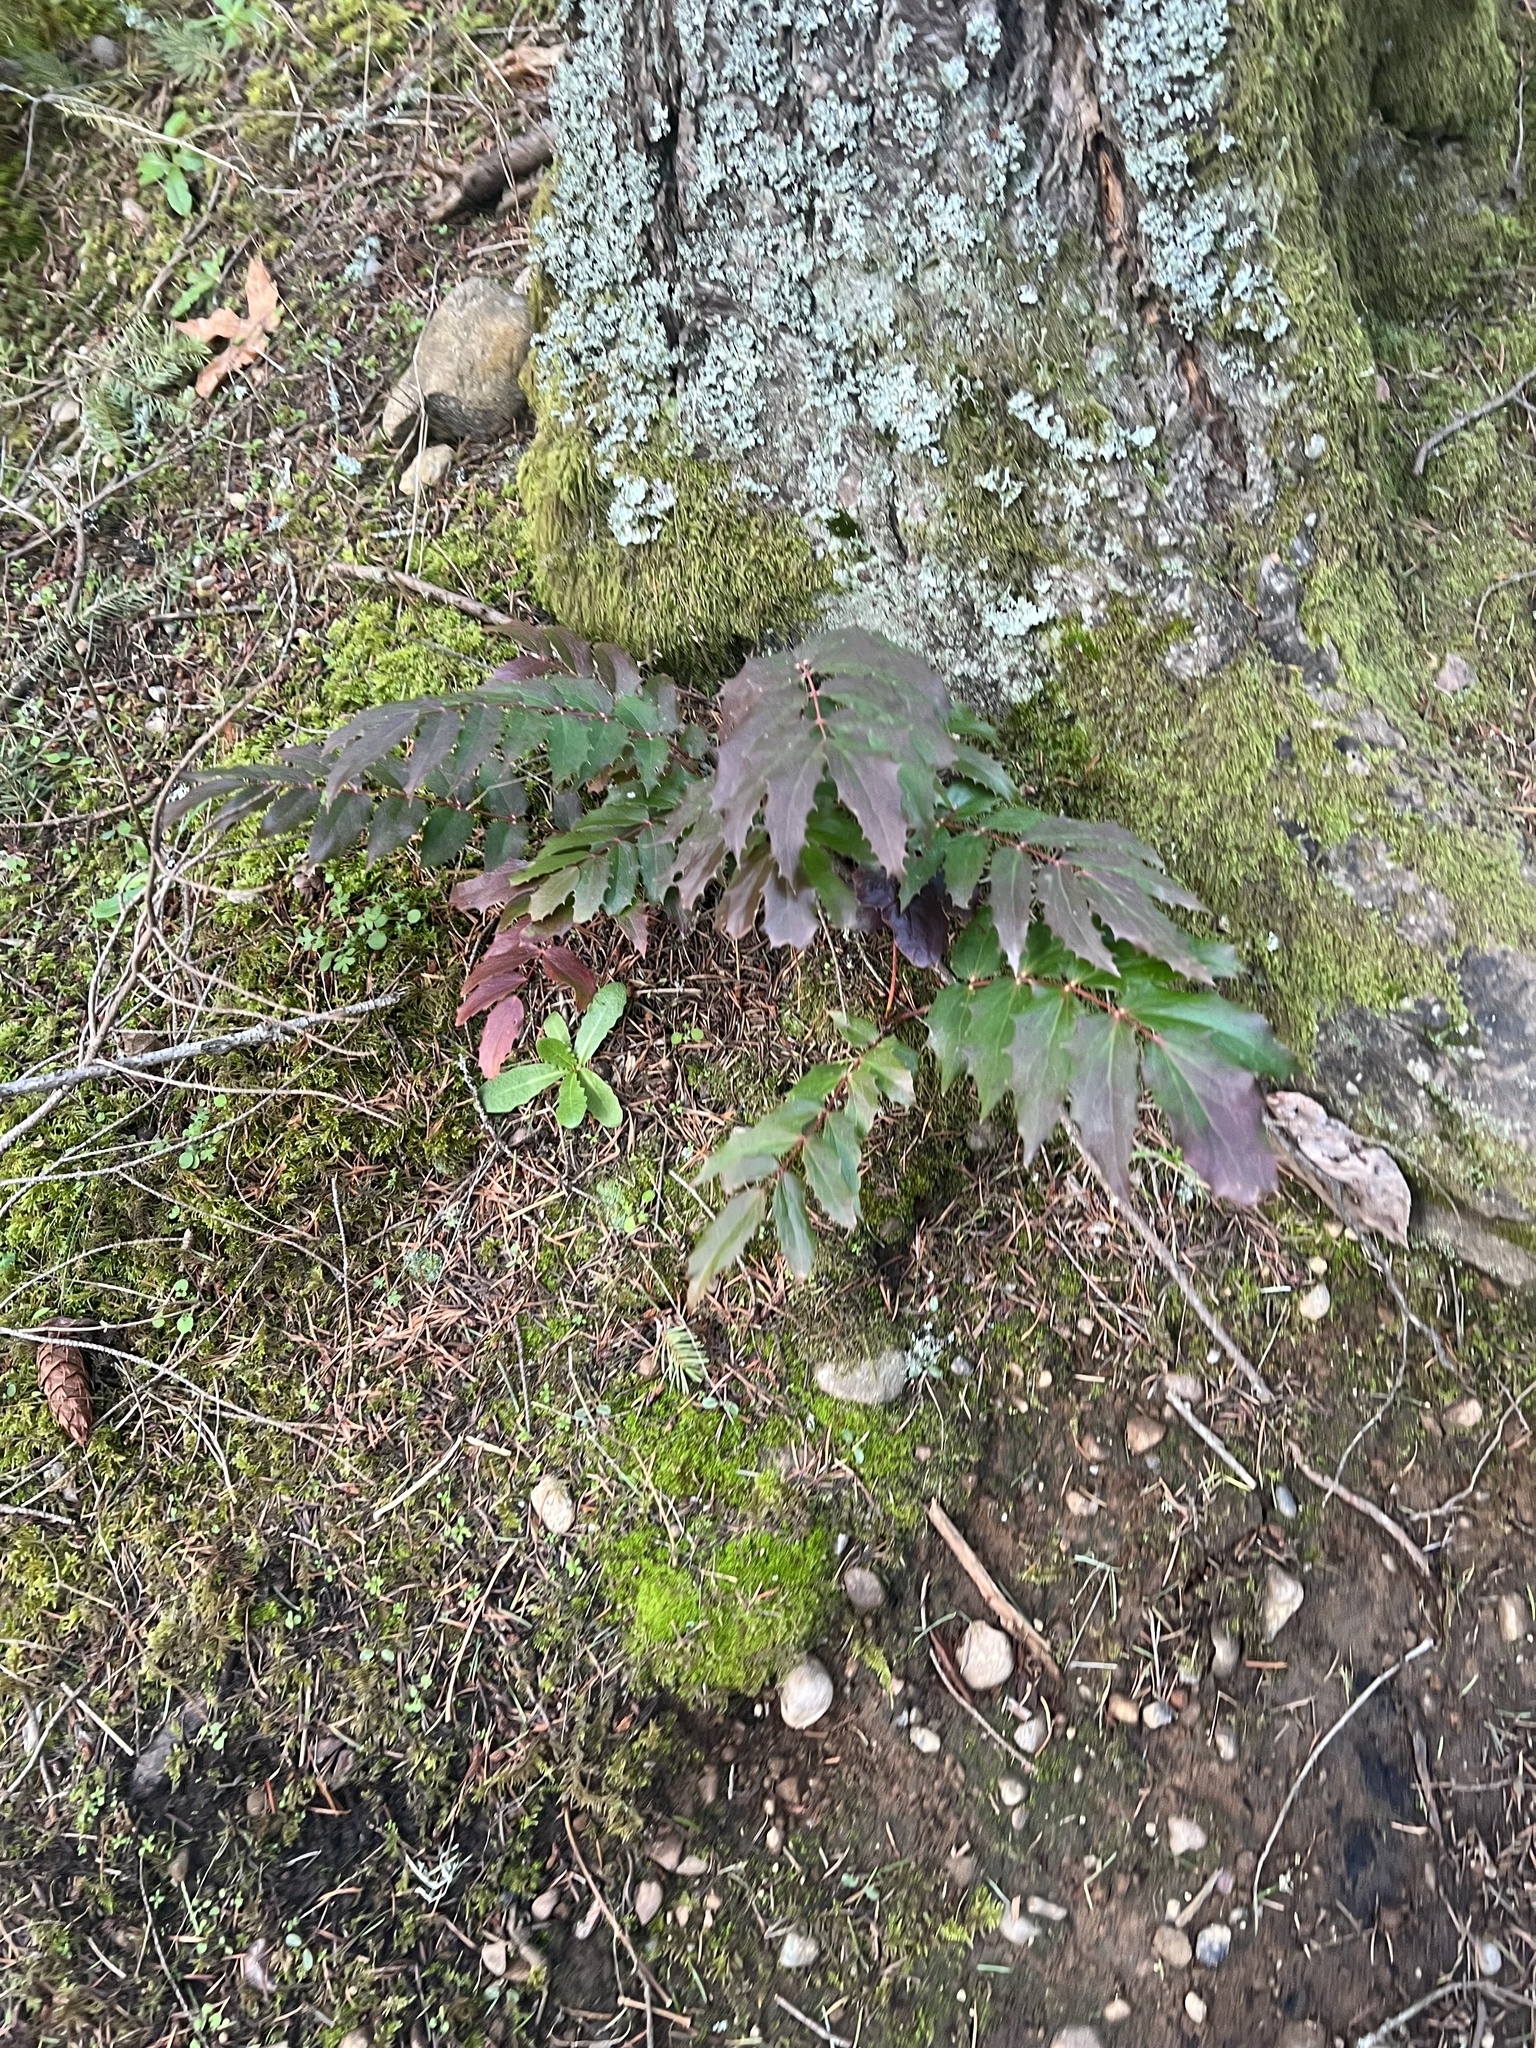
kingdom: Plantae
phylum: Tracheophyta
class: Magnoliopsida
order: Ranunculales
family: Berberidaceae
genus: Mahonia
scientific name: Mahonia nervosa
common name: Cascade oregon-grape
